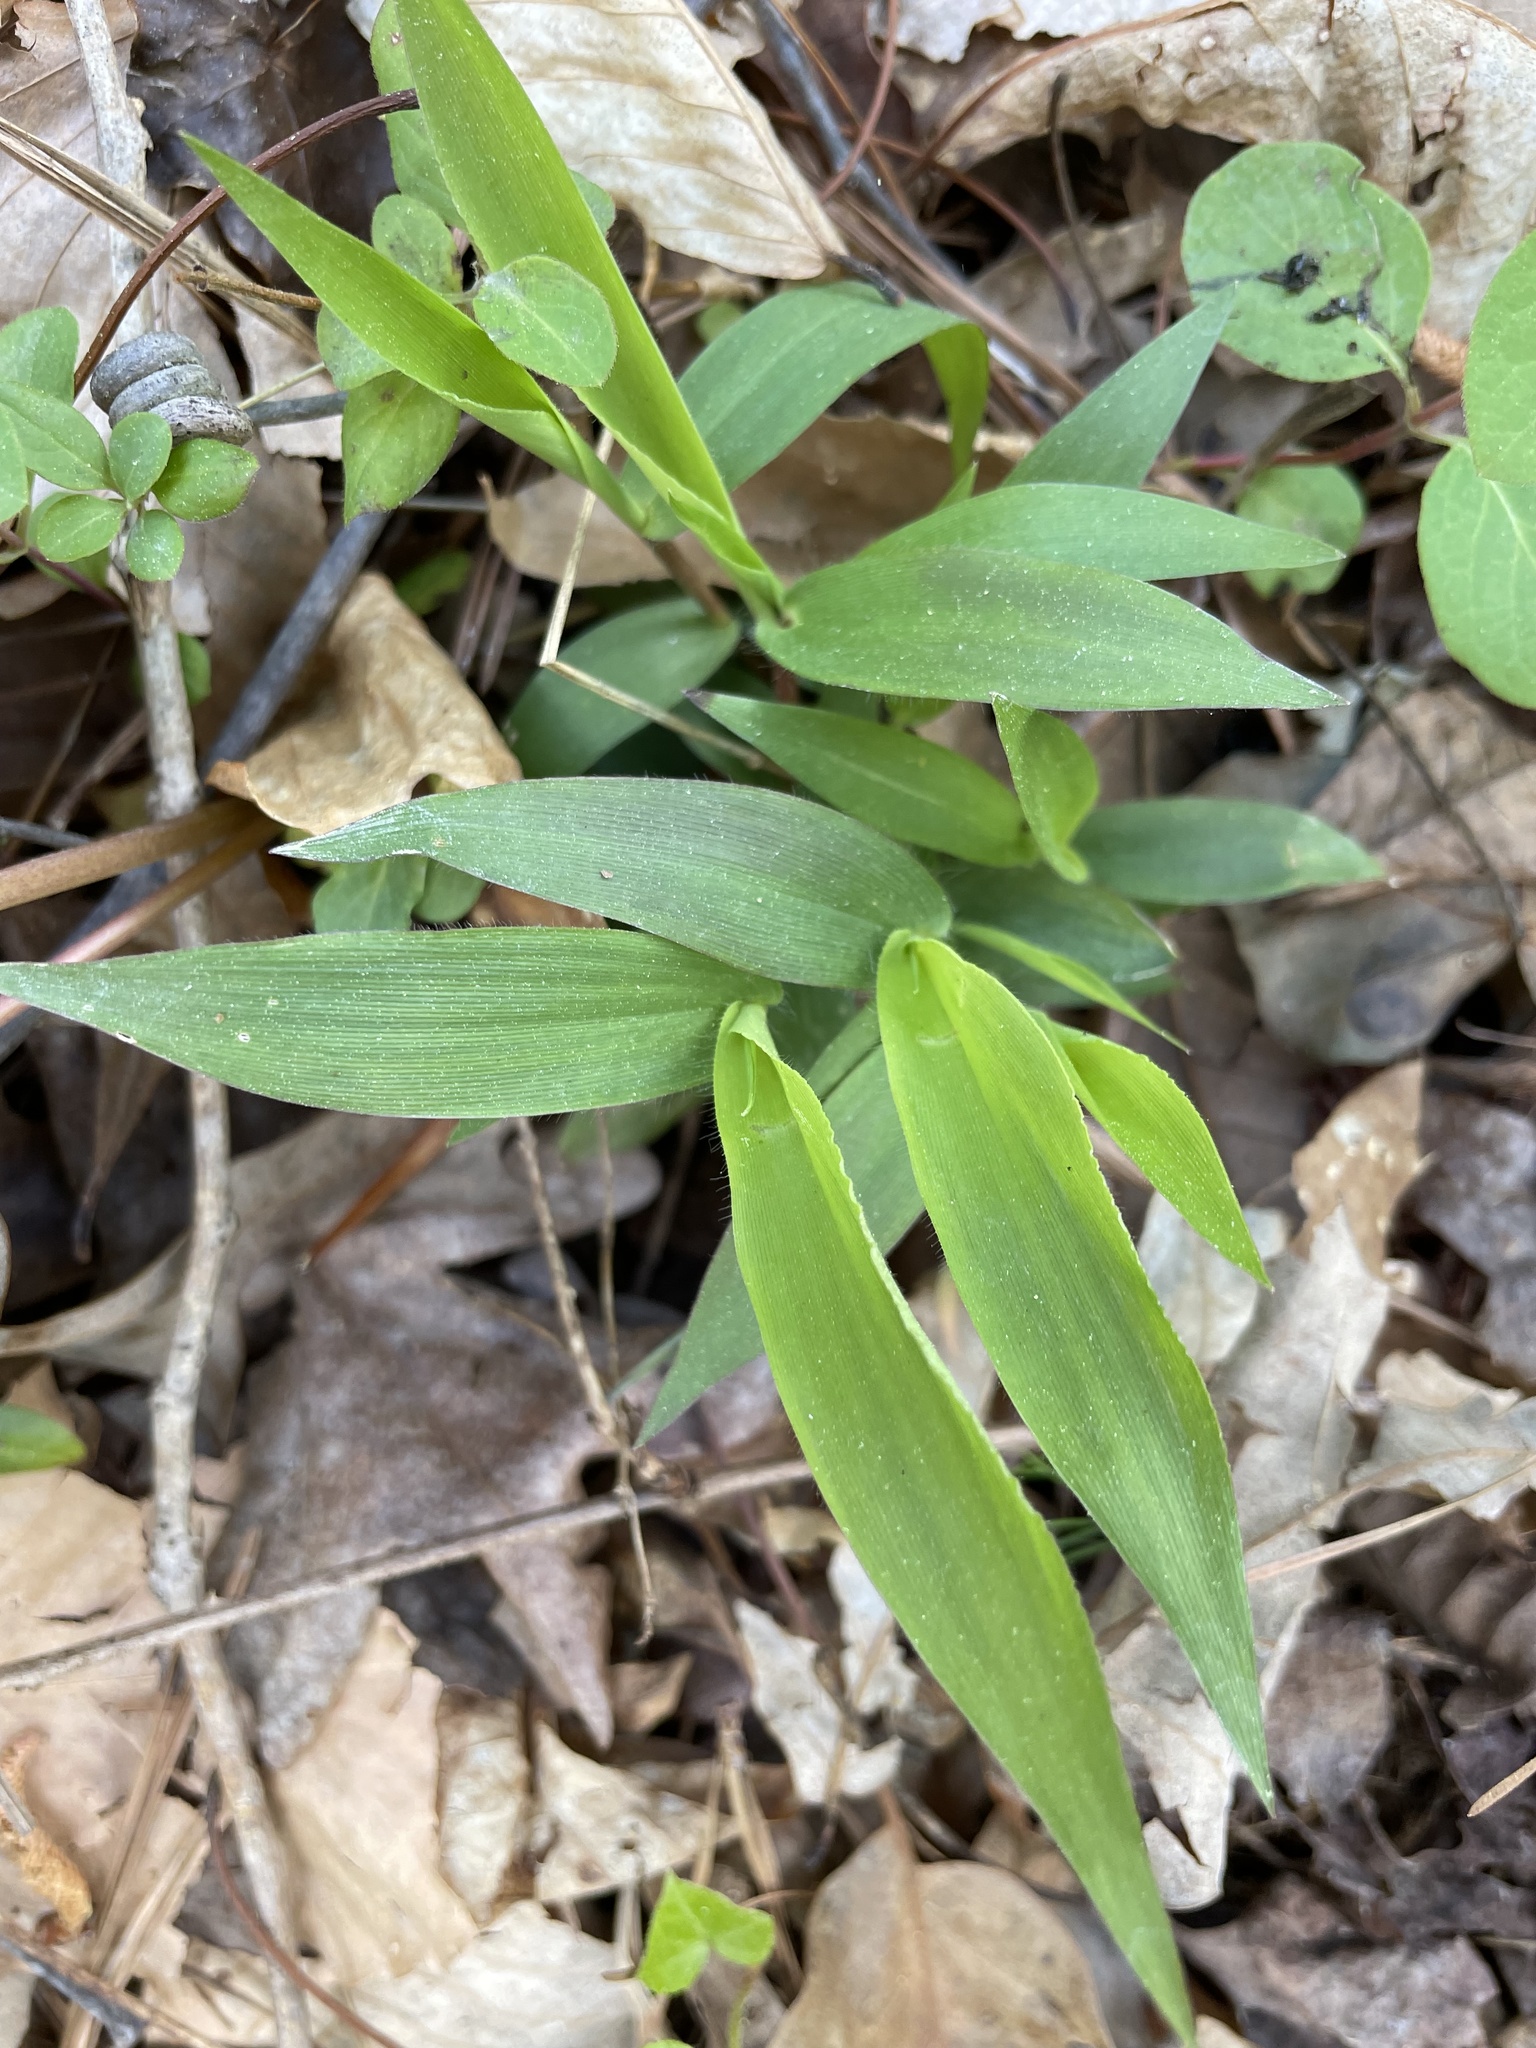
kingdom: Plantae
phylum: Tracheophyta
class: Liliopsida
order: Poales
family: Poaceae
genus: Dichanthelium
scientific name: Dichanthelium latifolium
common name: Broad-leaved panicgrass
